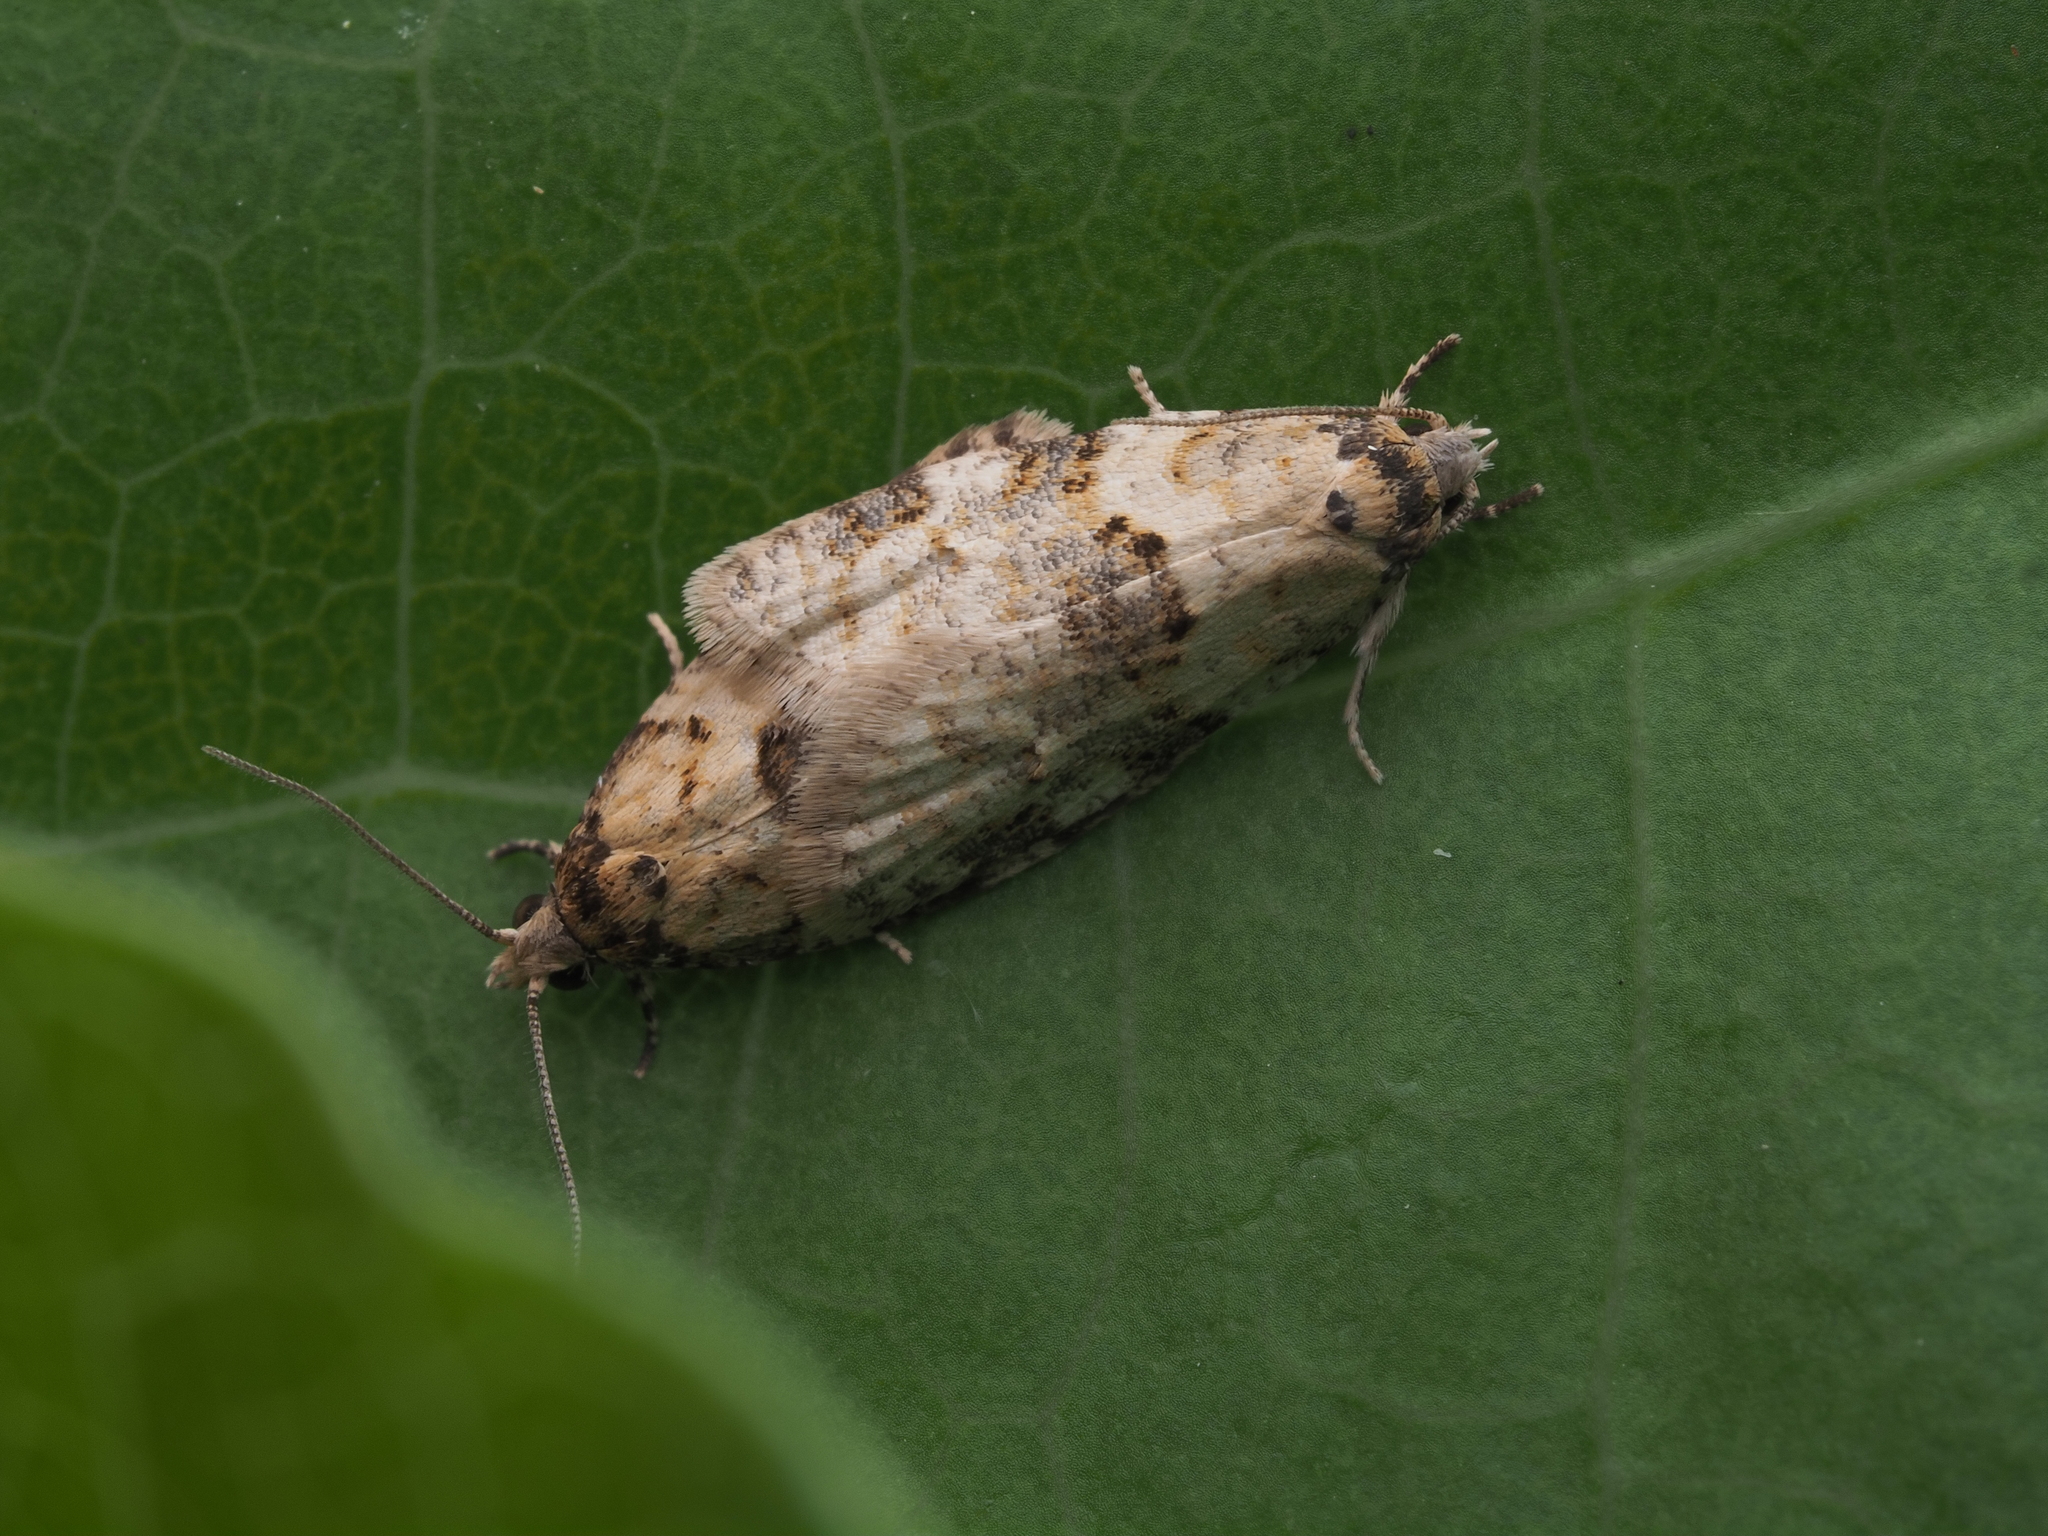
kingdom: Animalia
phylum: Arthropoda
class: Insecta
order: Lepidoptera
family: Tortricidae
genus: Dipterina
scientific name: Dipterina imbriferana
